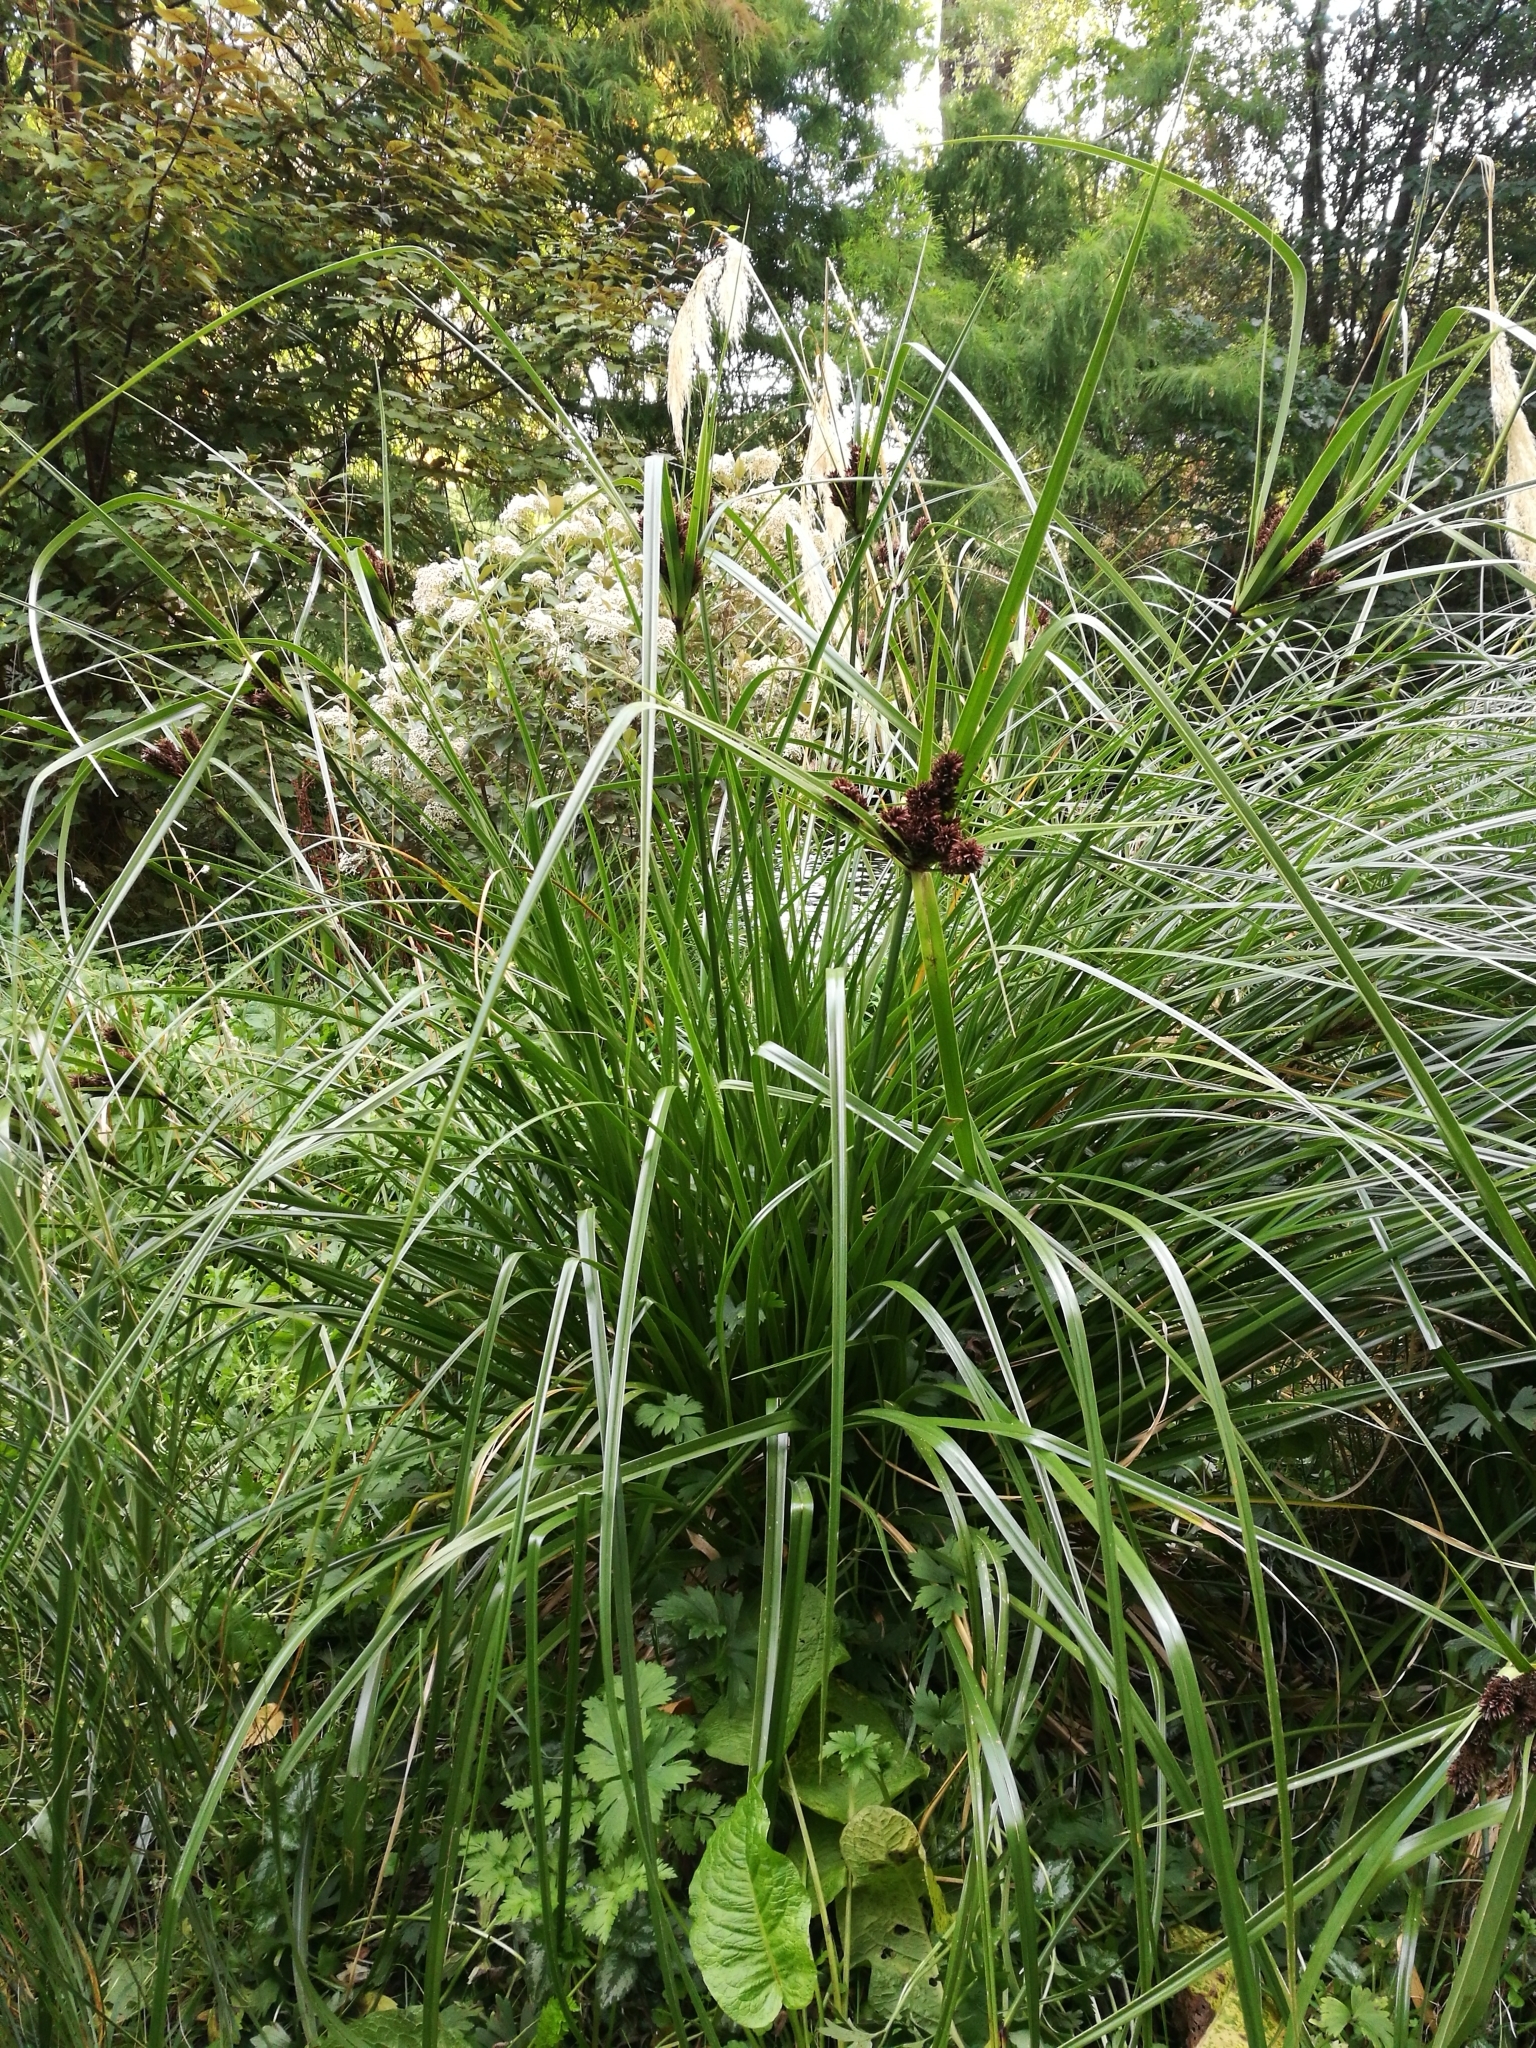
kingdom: Plantae
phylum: Tracheophyta
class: Liliopsida
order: Poales
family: Cyperaceae
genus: Cyperus
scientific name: Cyperus ustulatus
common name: Giant umbrella-sedge
